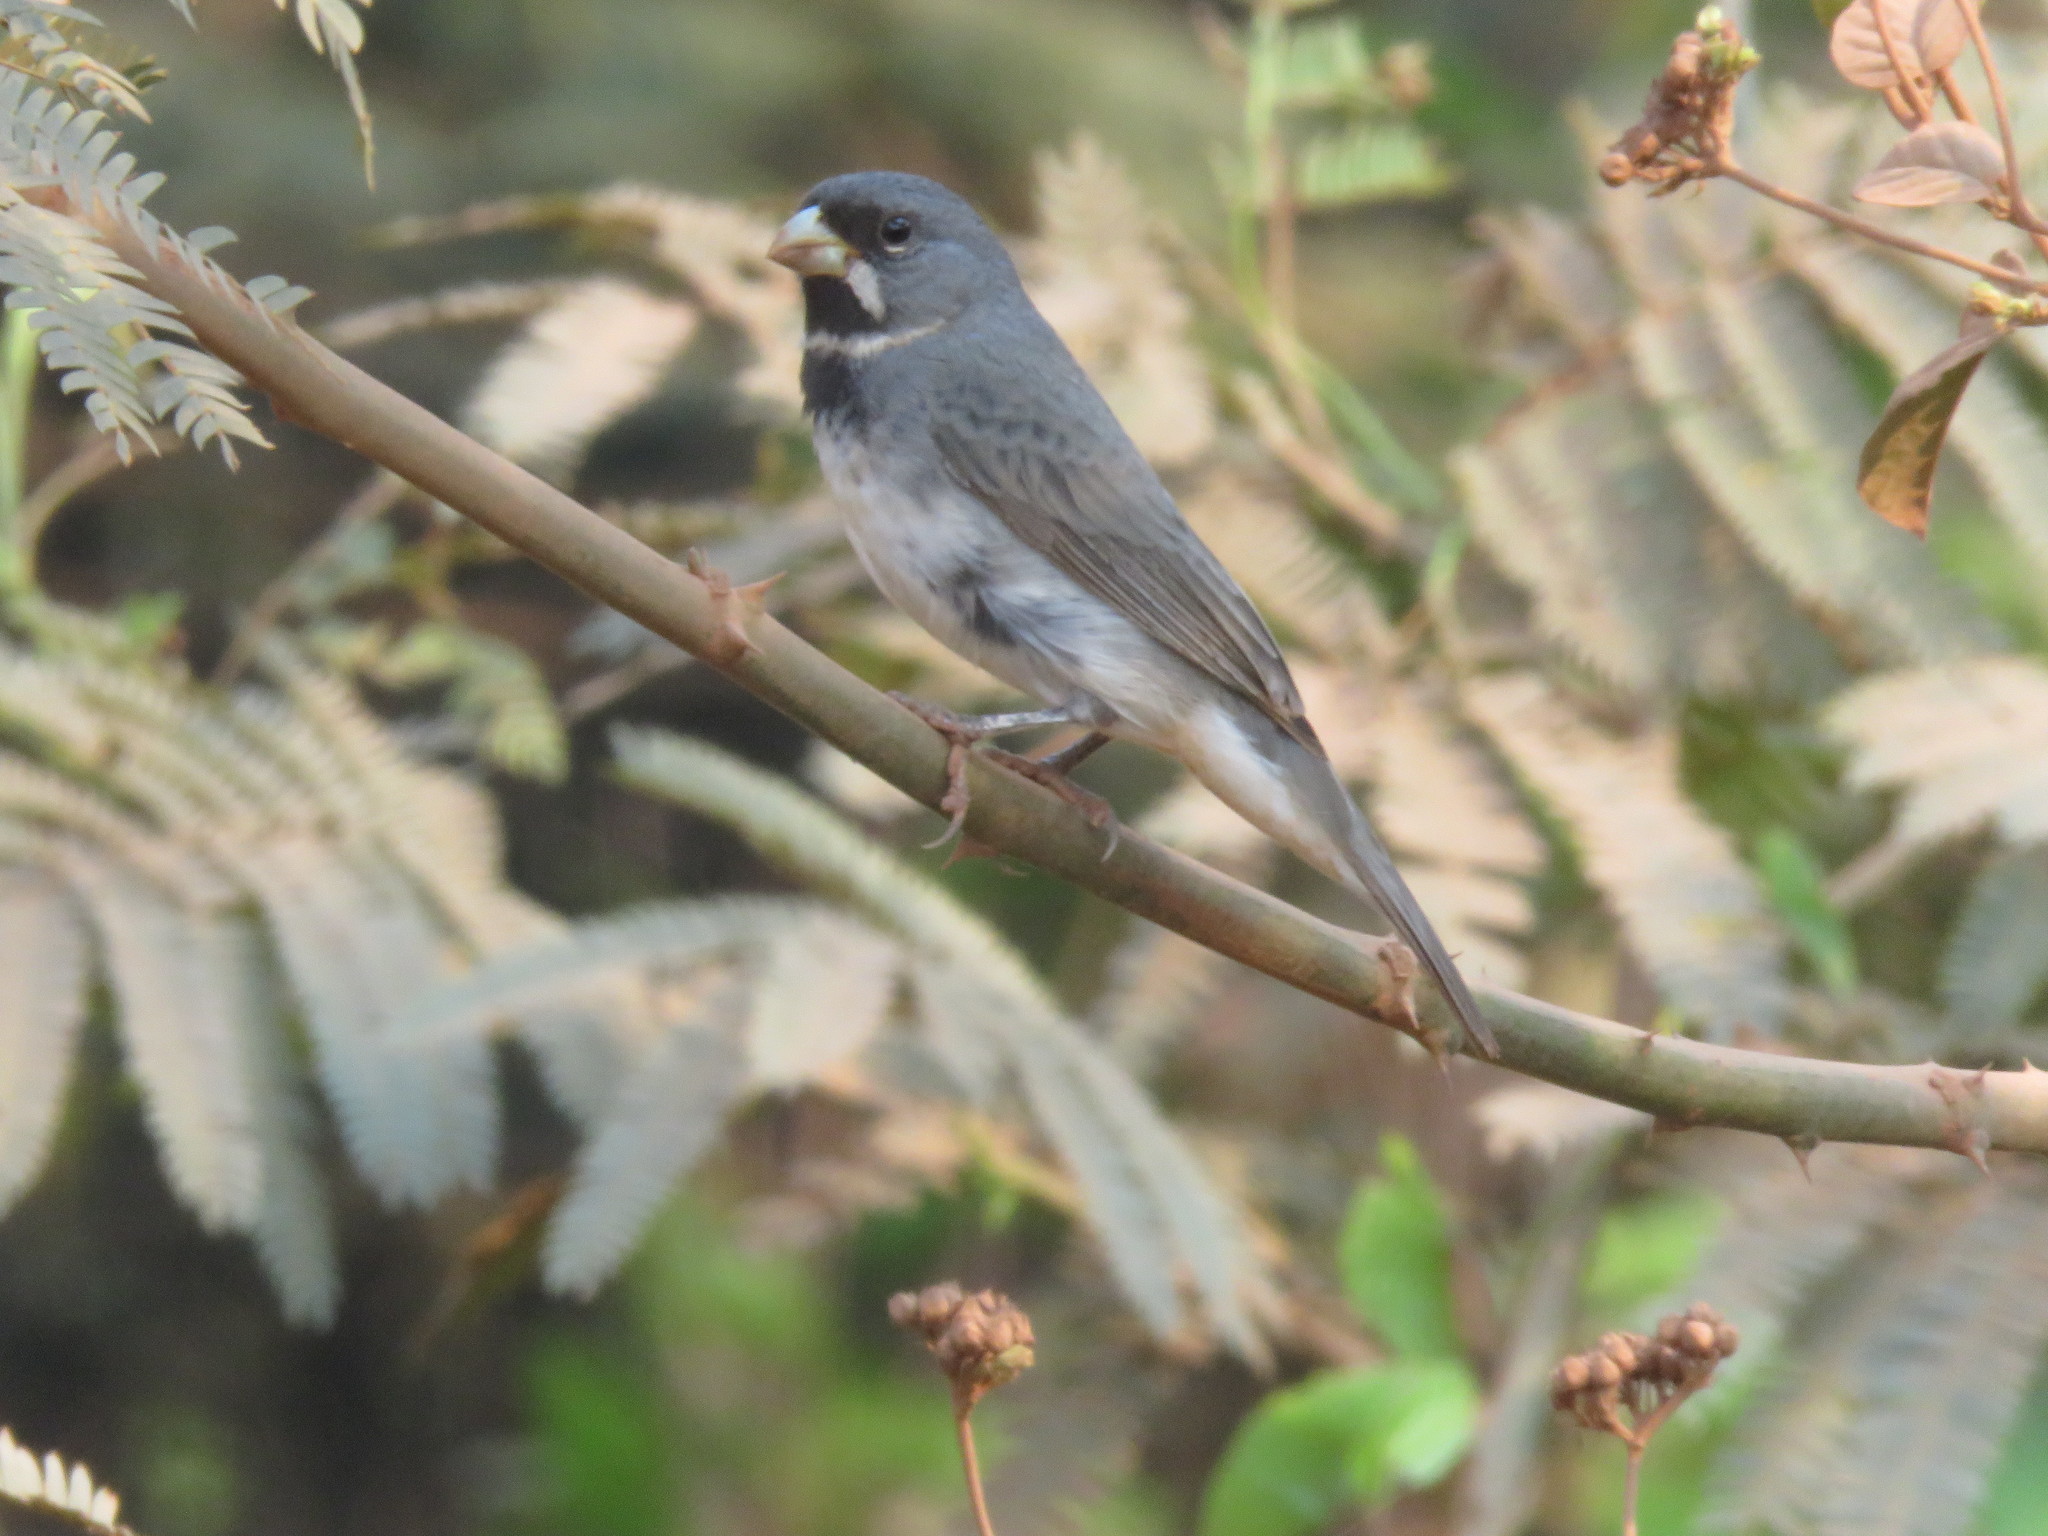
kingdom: Animalia
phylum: Chordata
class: Aves
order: Passeriformes
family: Thraupidae
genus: Sporophila
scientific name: Sporophila caerulescens
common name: Double-collared seedeater
